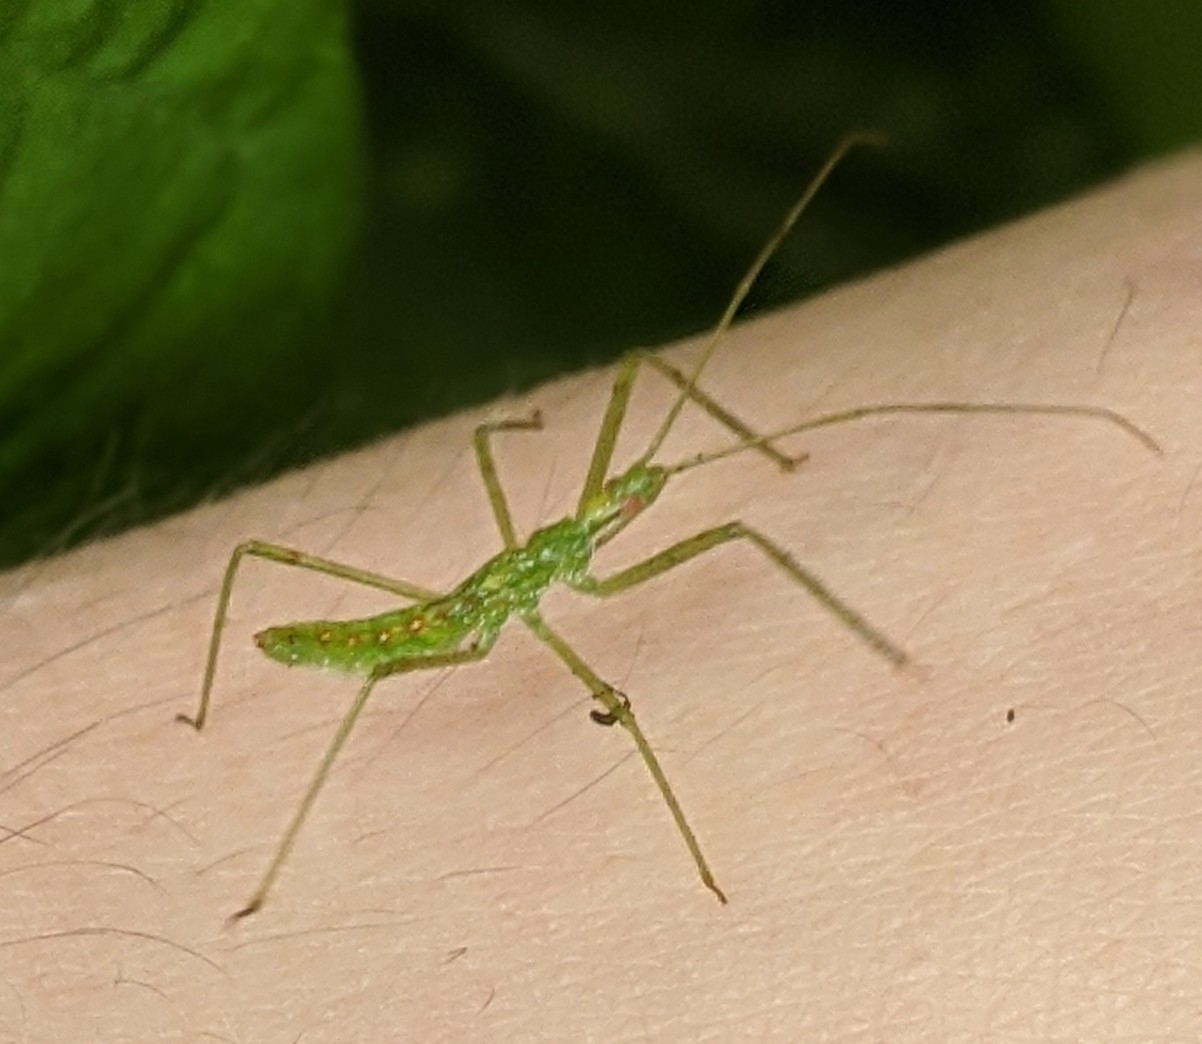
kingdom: Animalia
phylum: Arthropoda
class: Insecta
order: Hemiptera
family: Reduviidae
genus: Zelus
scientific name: Zelus luridus
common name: Pale green assassin bug
